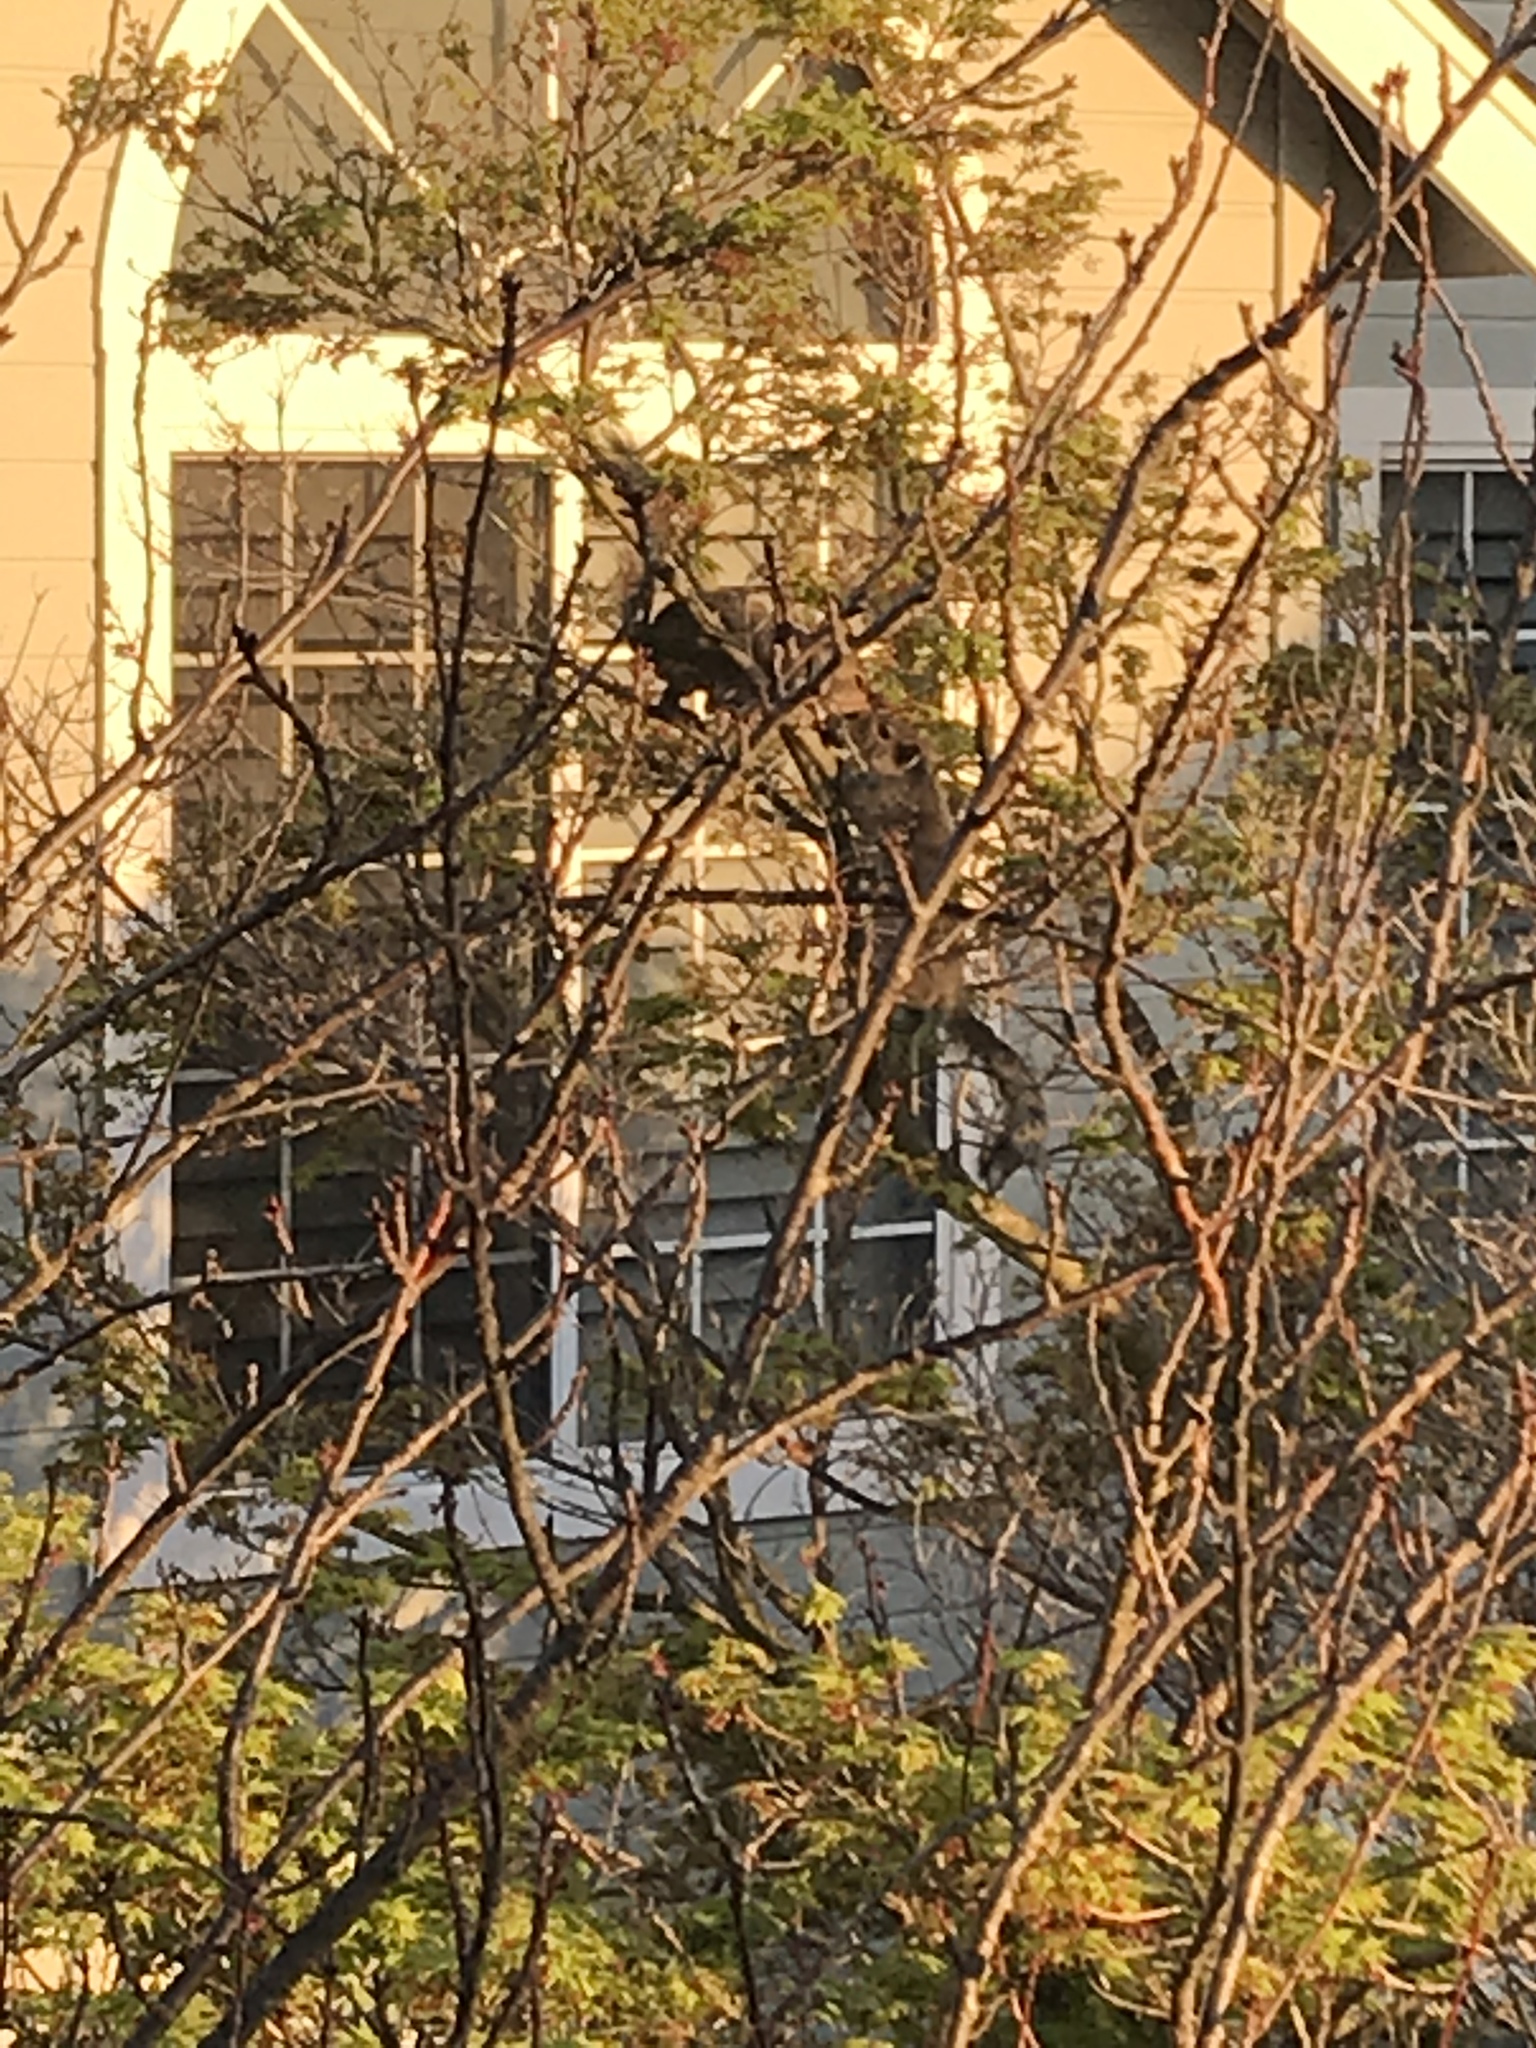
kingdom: Animalia
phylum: Chordata
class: Mammalia
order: Rodentia
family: Sciuridae
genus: Sciurus
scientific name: Sciurus carolinensis
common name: Eastern gray squirrel
